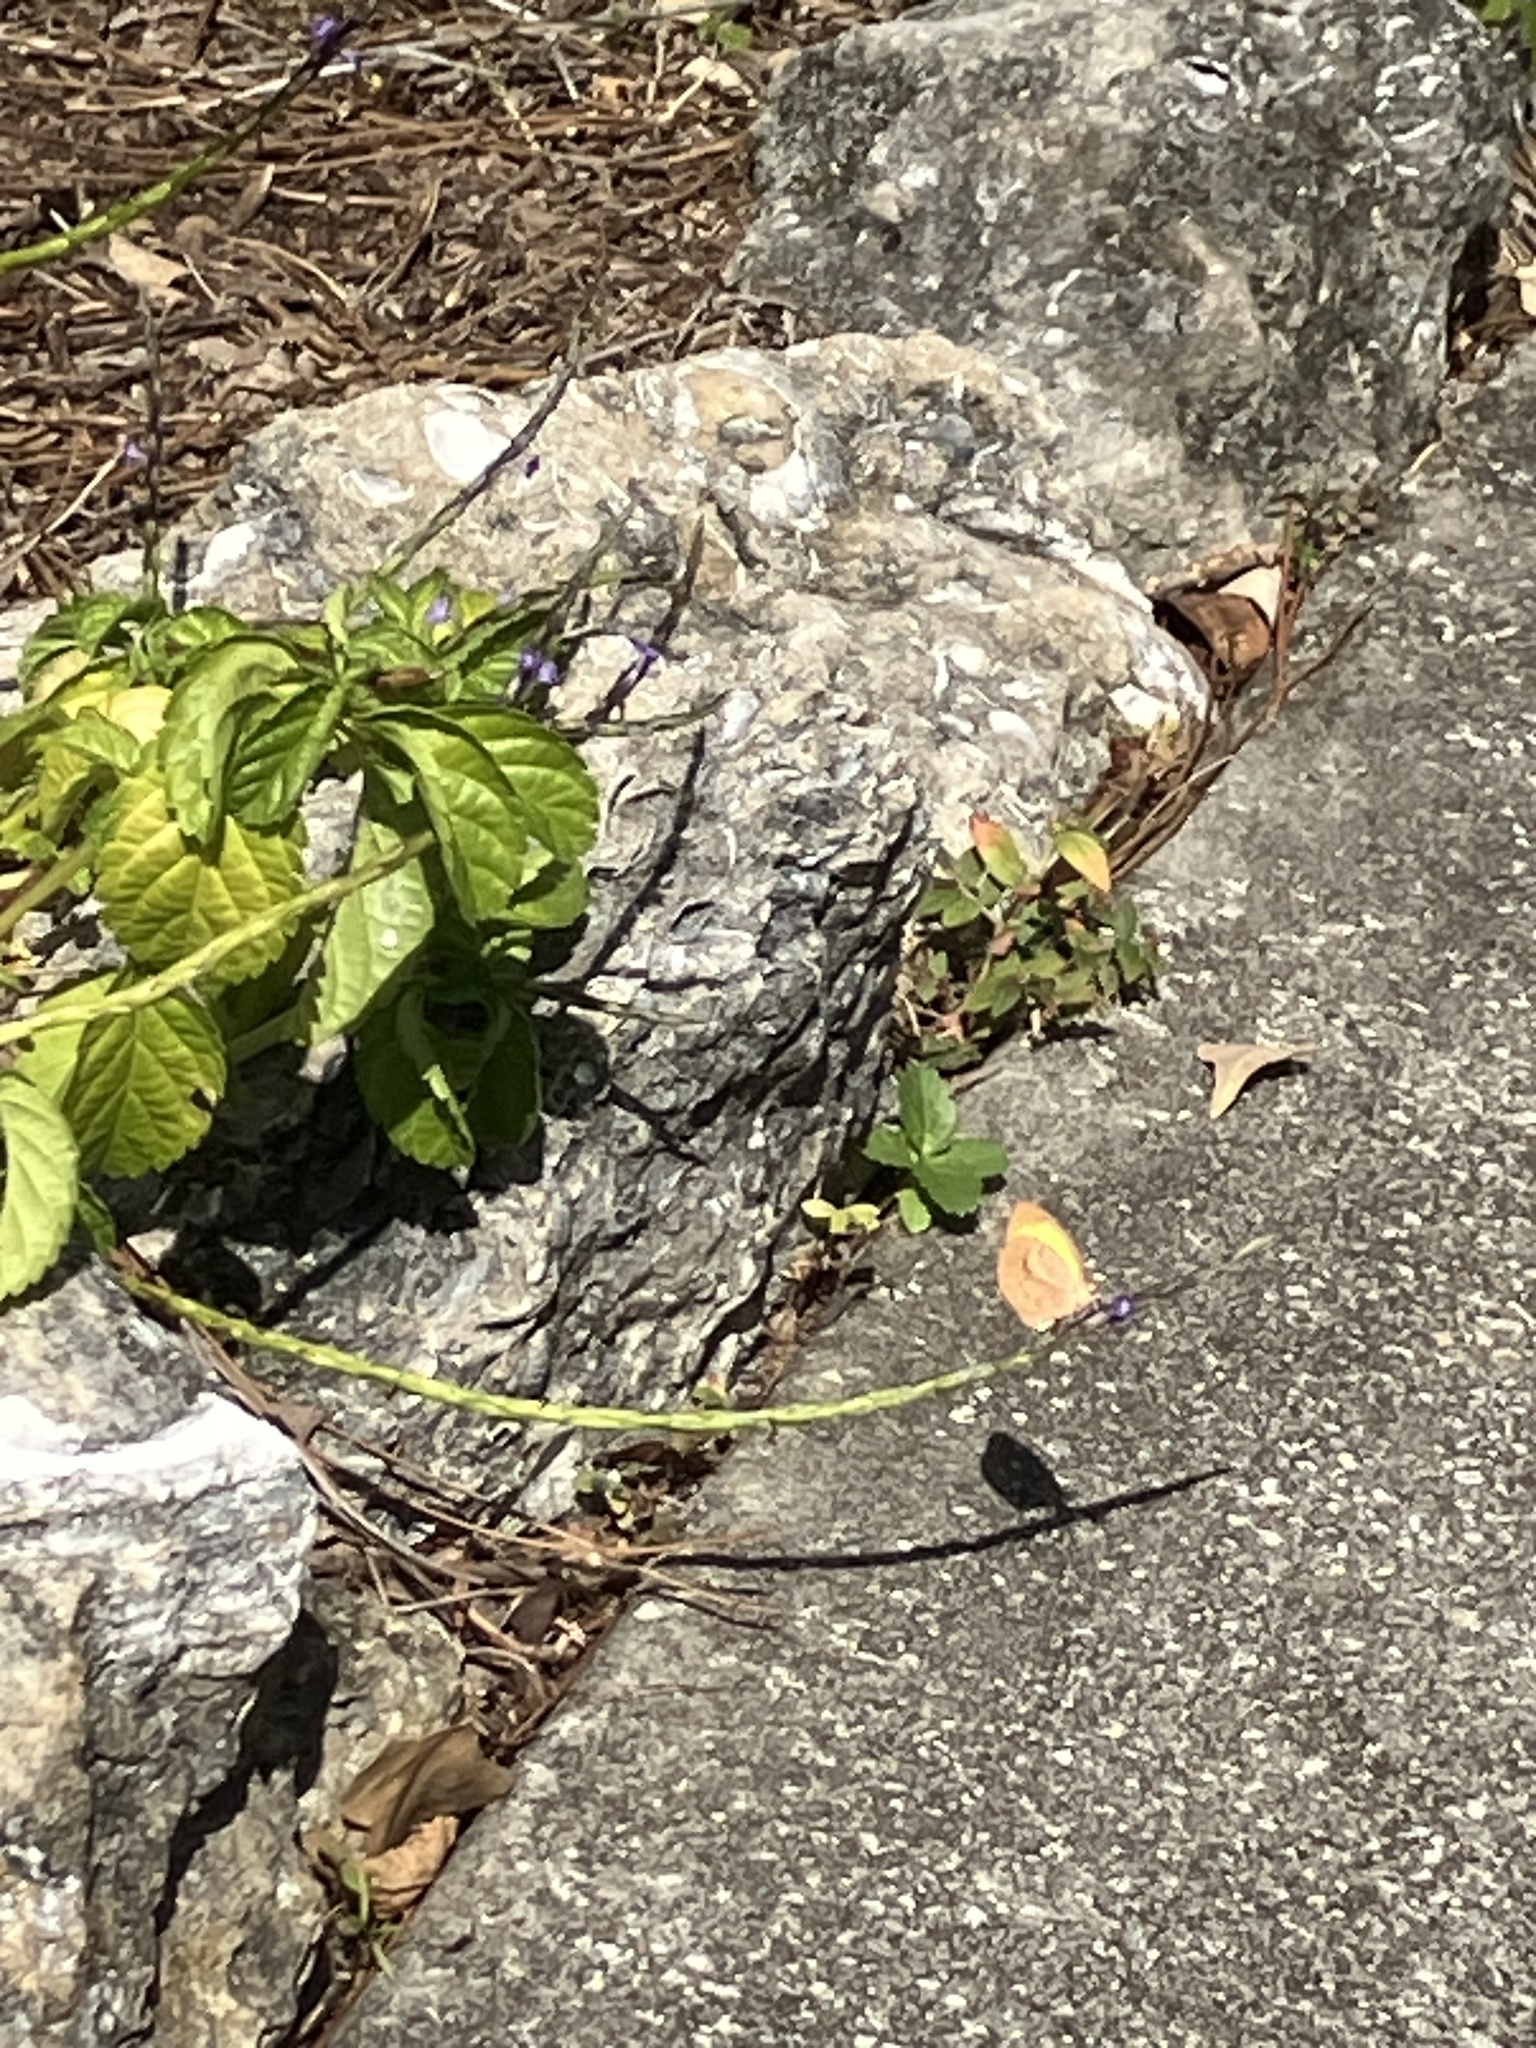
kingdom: Animalia
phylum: Arthropoda
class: Insecta
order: Lepidoptera
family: Pieridae
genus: Eurema
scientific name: Eurema daira
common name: Barred sulphur
